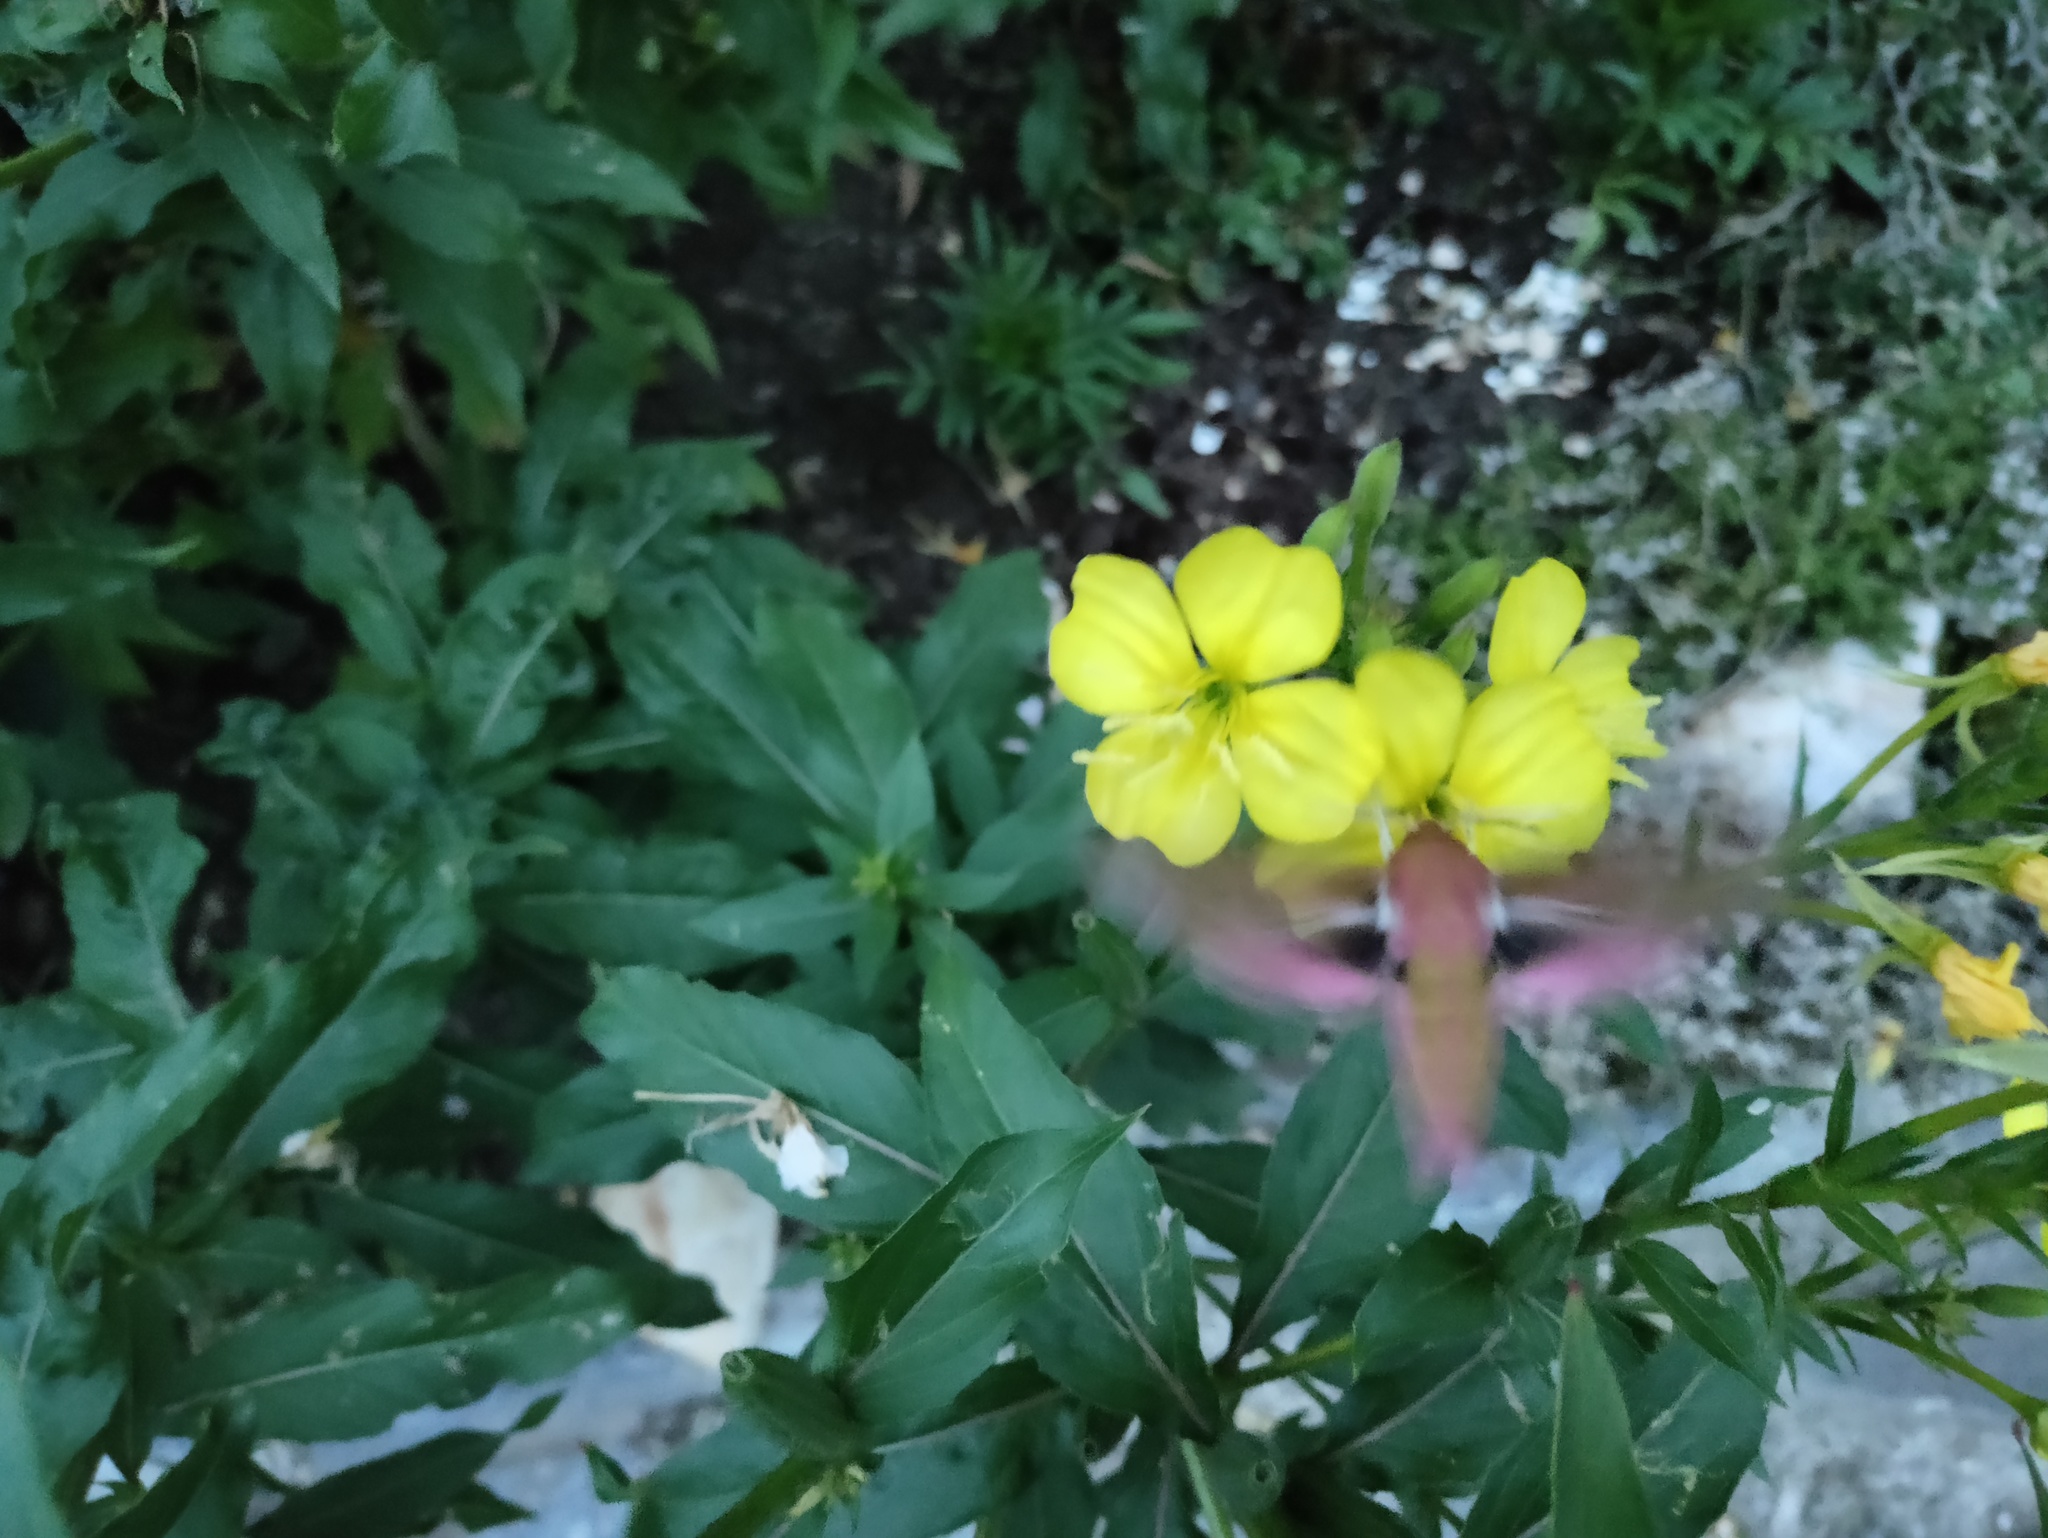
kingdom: Animalia
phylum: Arthropoda
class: Insecta
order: Lepidoptera
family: Sphingidae
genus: Deilephila
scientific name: Deilephila elpenor
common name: Elephant hawk-moth
